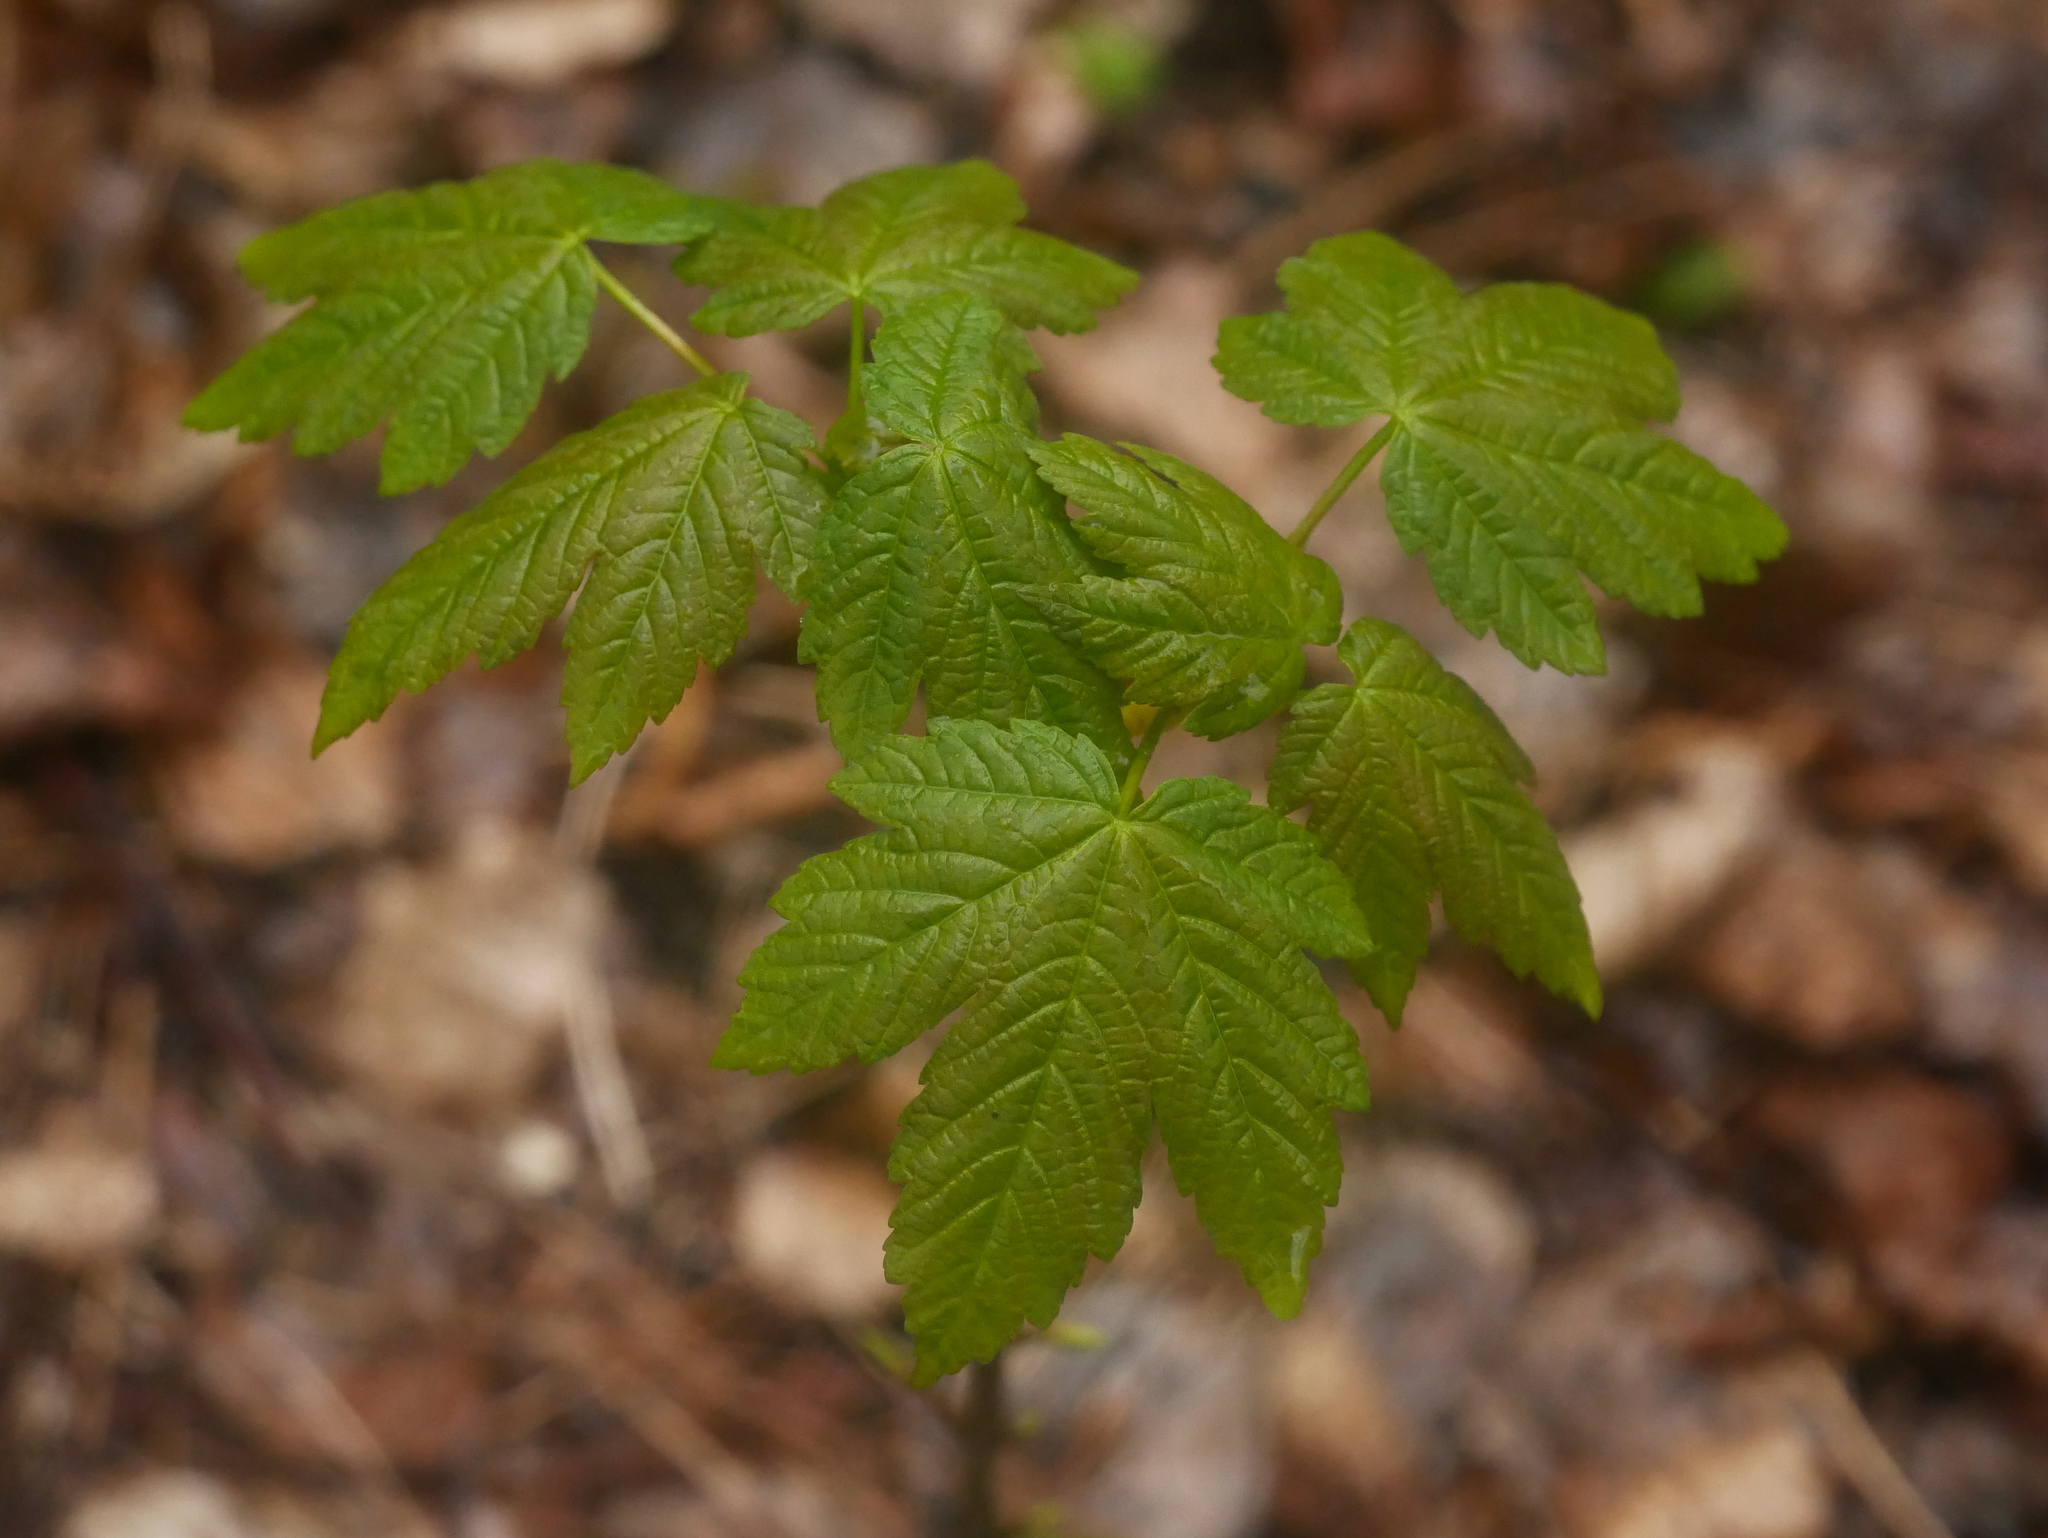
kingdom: Plantae
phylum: Tracheophyta
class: Magnoliopsida
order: Sapindales
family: Sapindaceae
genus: Acer
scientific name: Acer pseudoplatanus
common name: Sycamore
